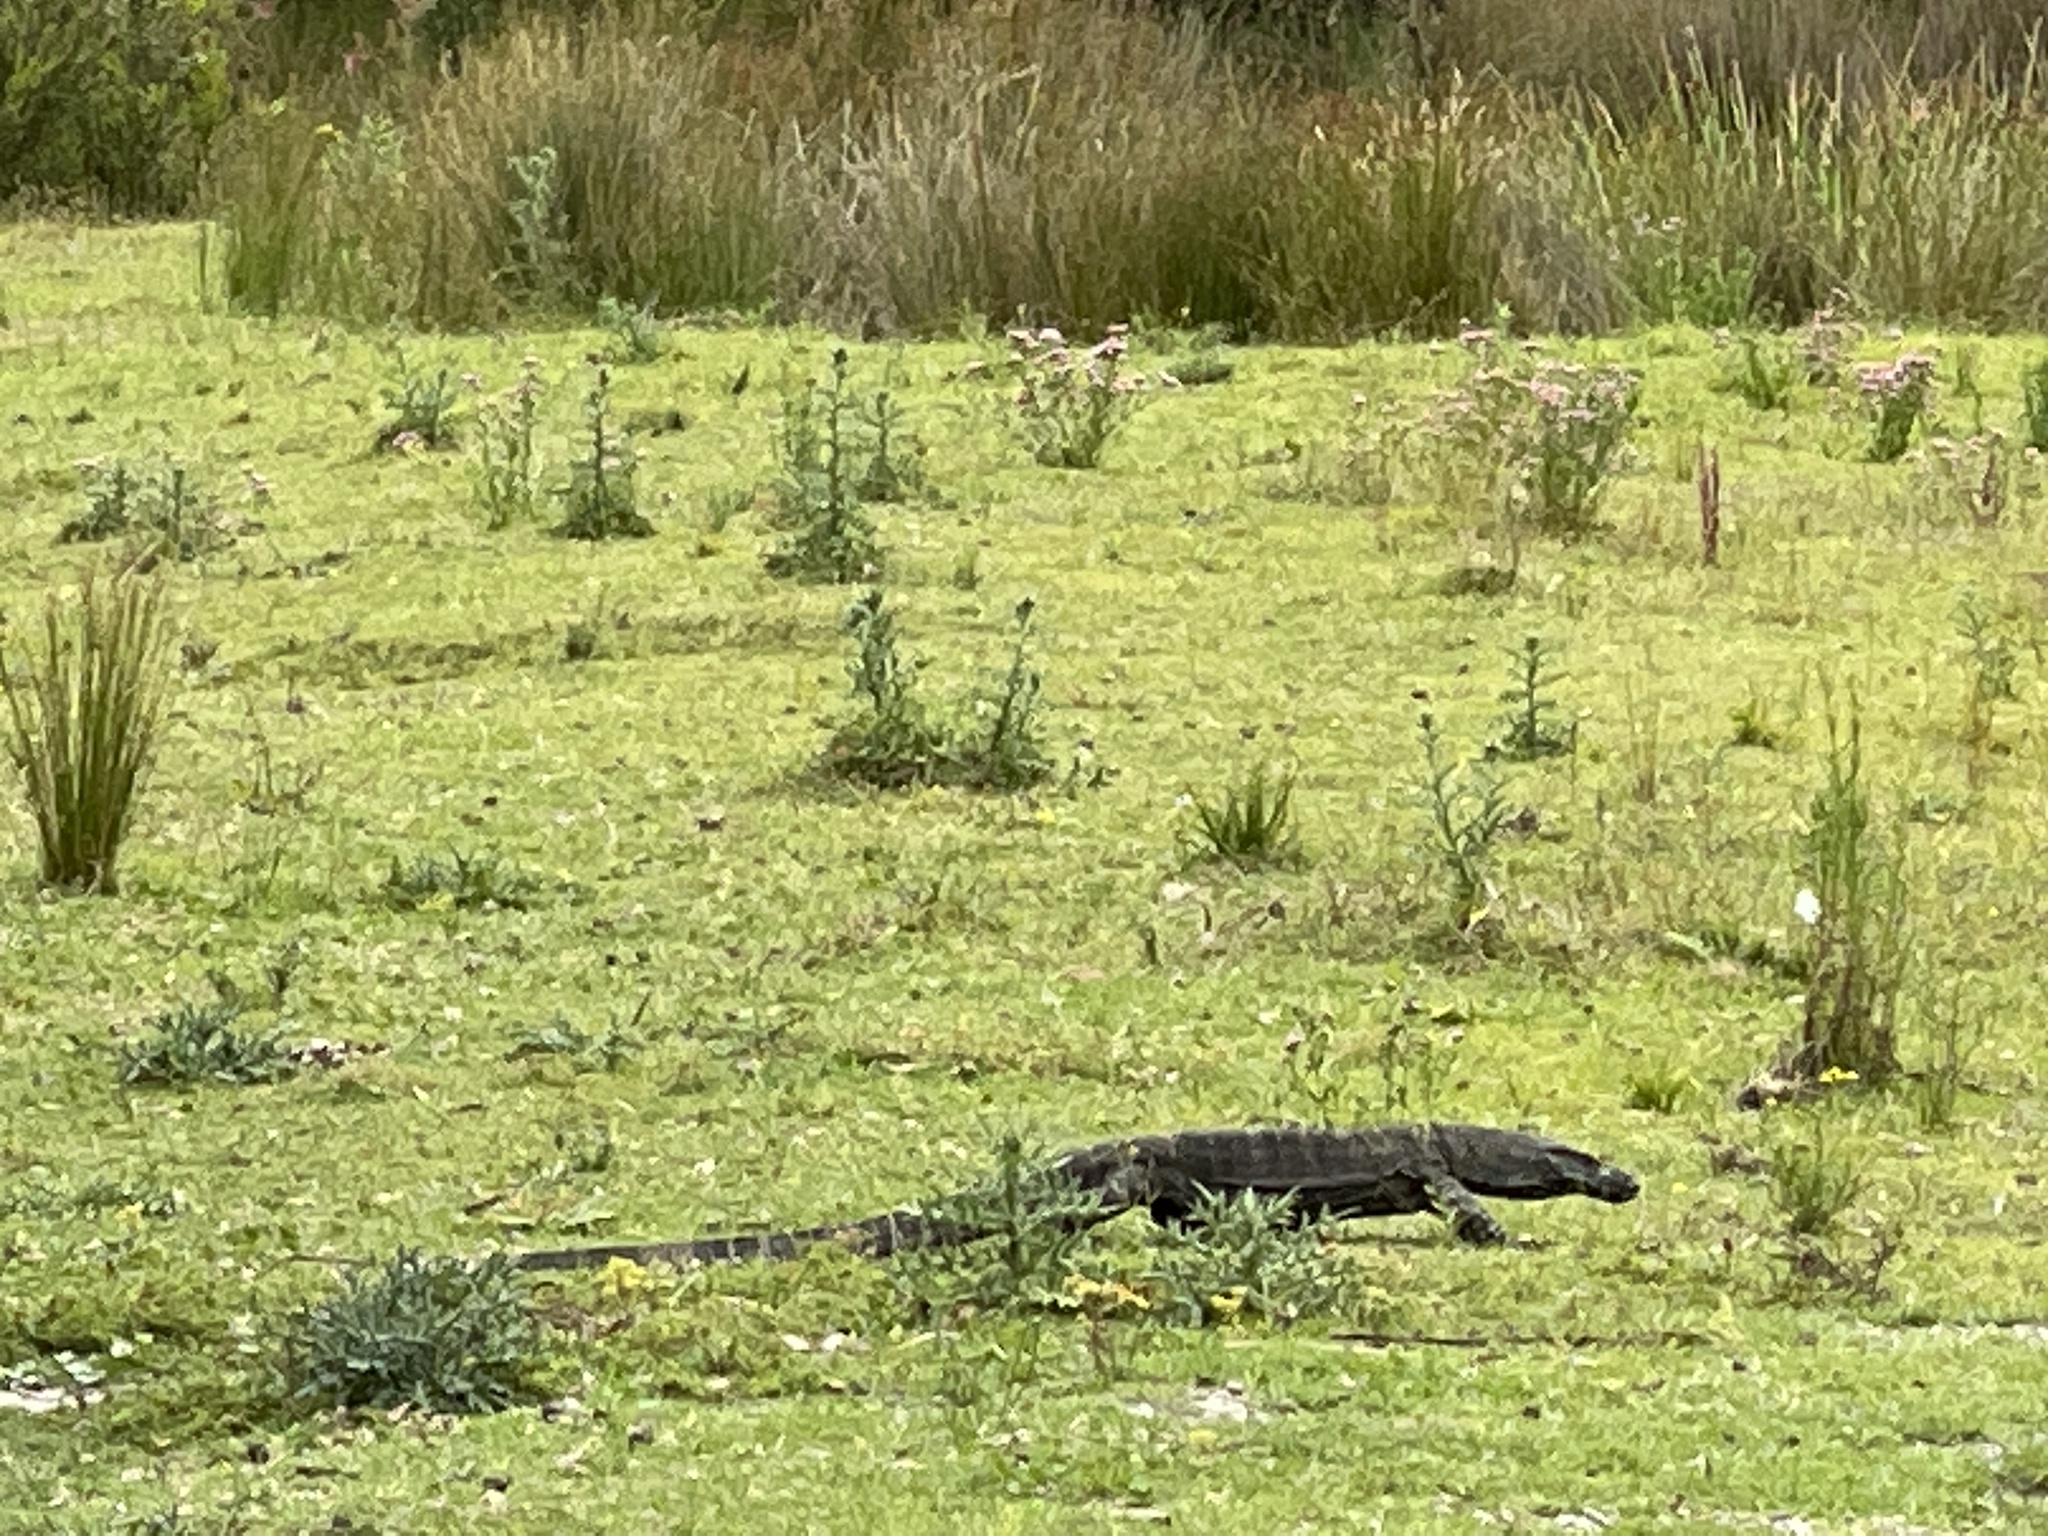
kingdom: Animalia
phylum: Chordata
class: Squamata
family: Varanidae
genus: Varanus
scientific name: Varanus varius
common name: Lace monitor
